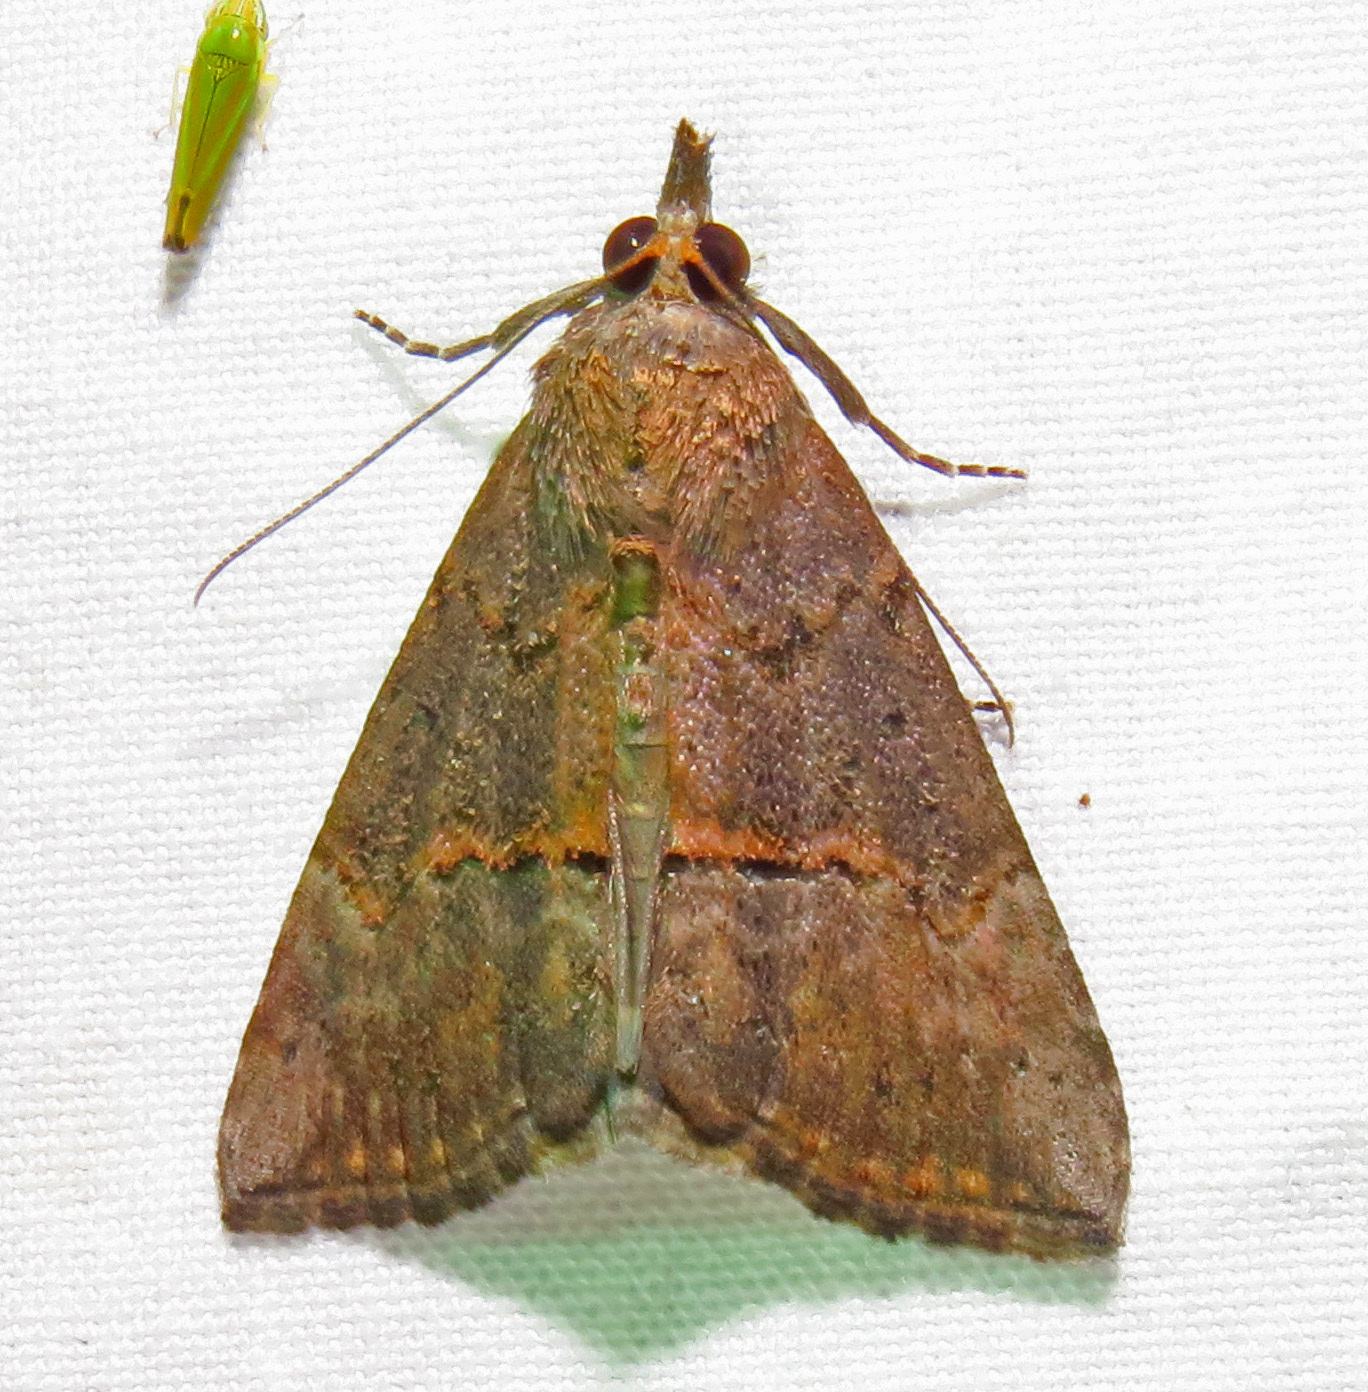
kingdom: Animalia
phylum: Arthropoda
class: Insecta
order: Lepidoptera
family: Erebidae
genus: Hypena
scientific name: Hypena scabra
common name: Green cloverworm
